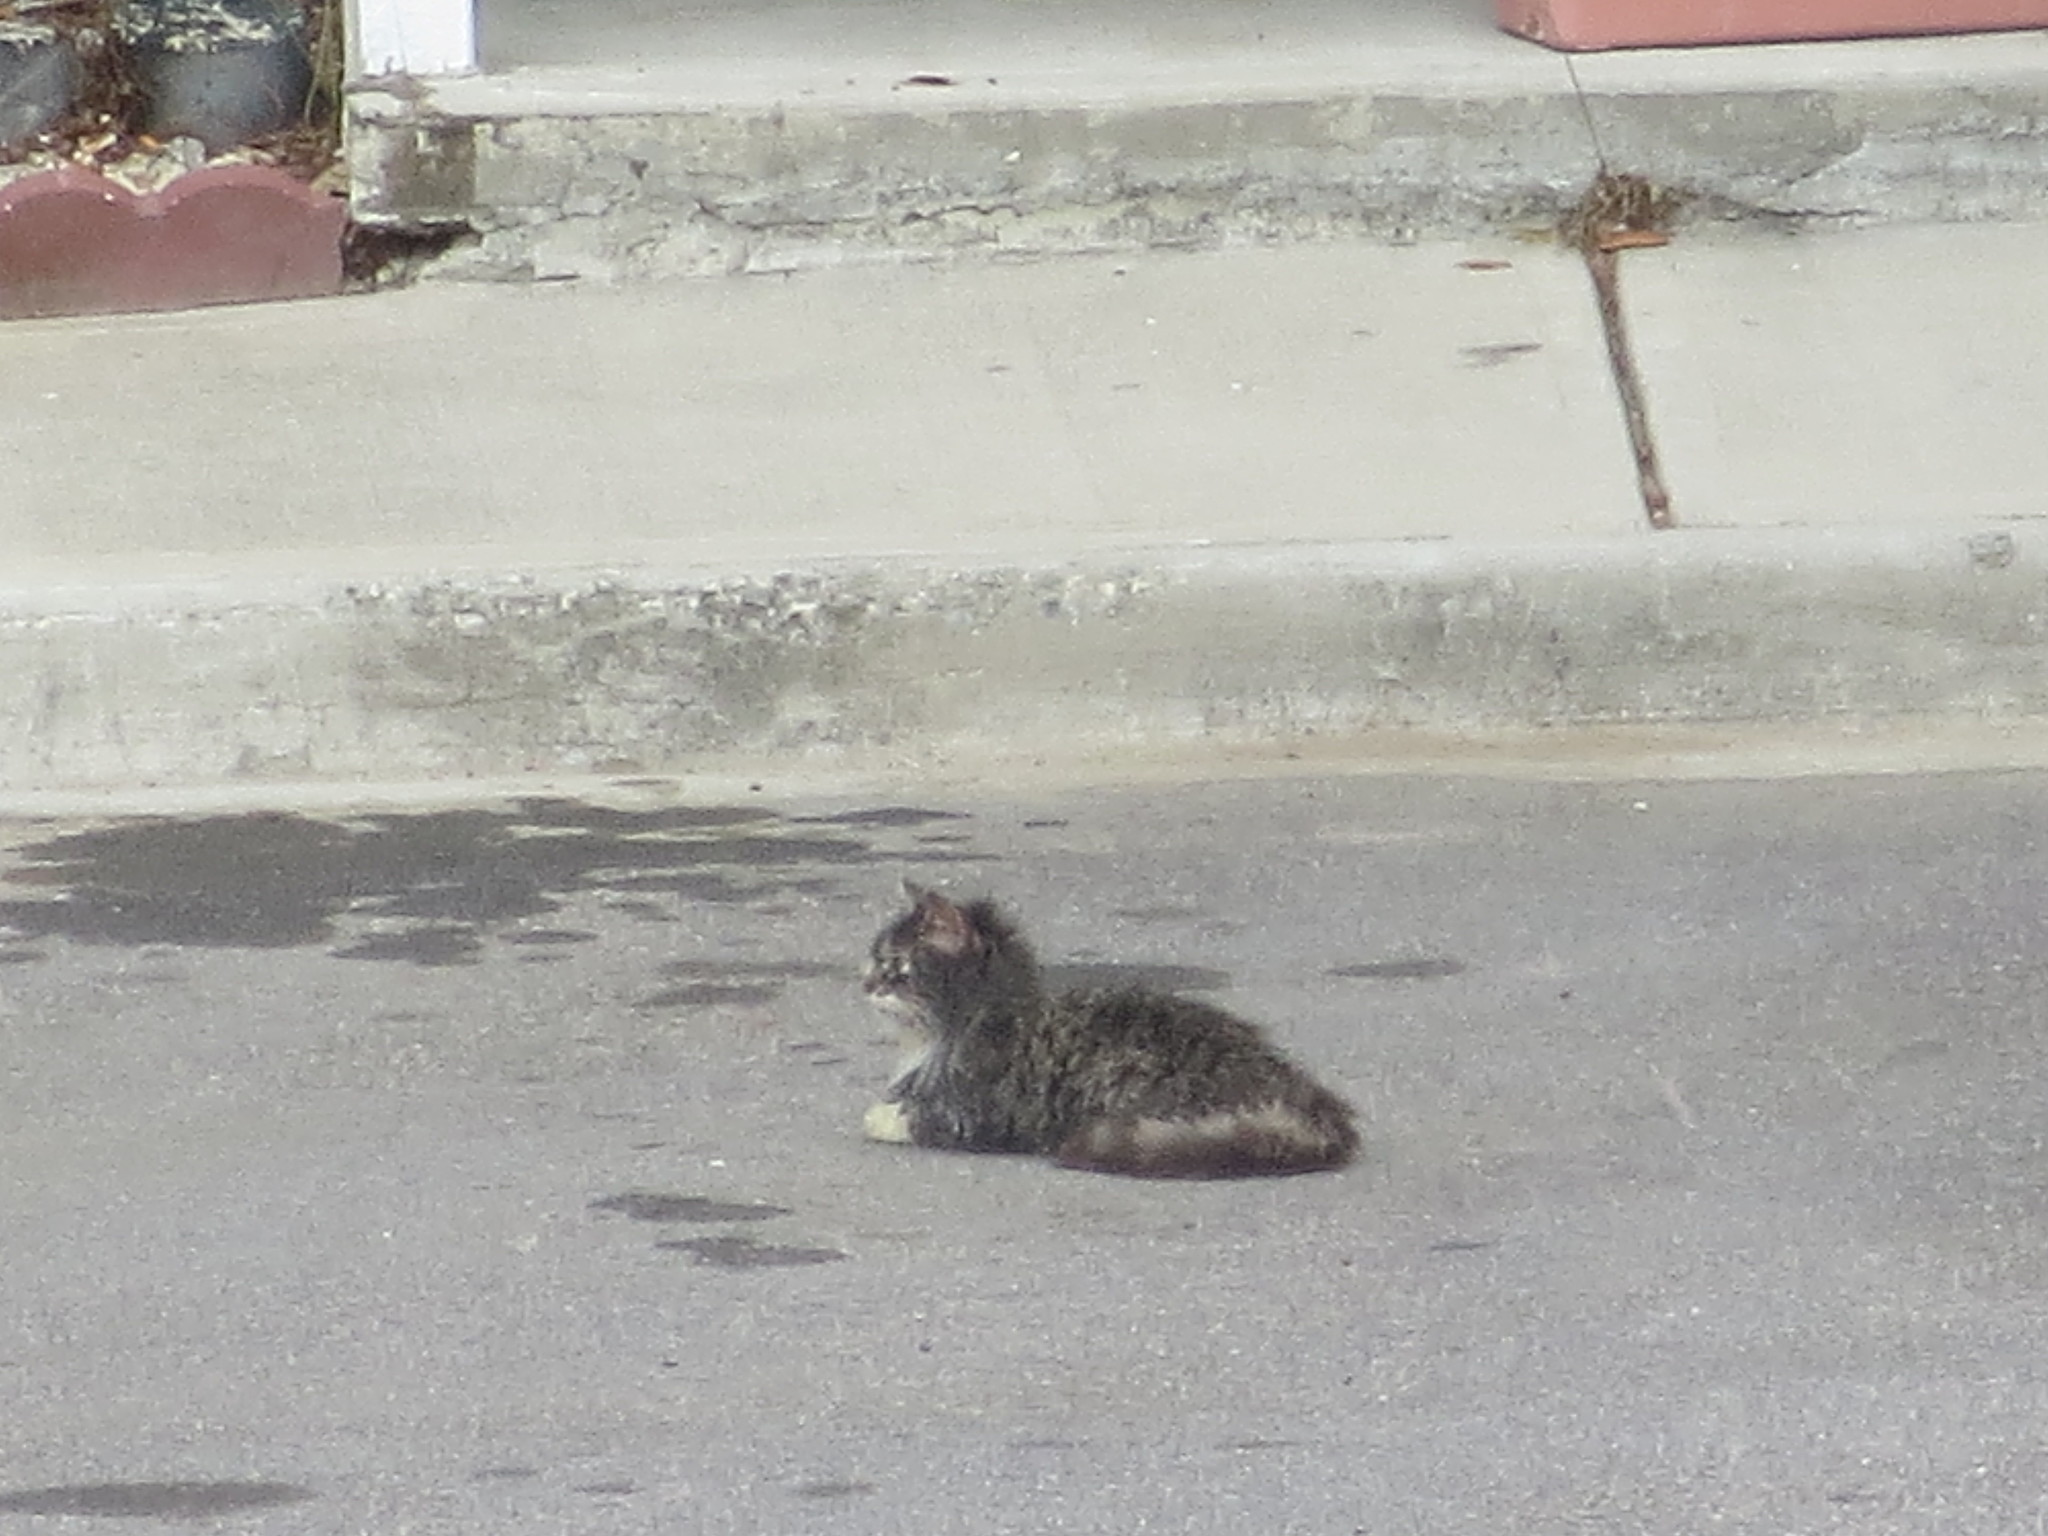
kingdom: Animalia
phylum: Chordata
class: Mammalia
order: Carnivora
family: Felidae
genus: Felis
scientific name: Felis catus
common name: Domestic cat
